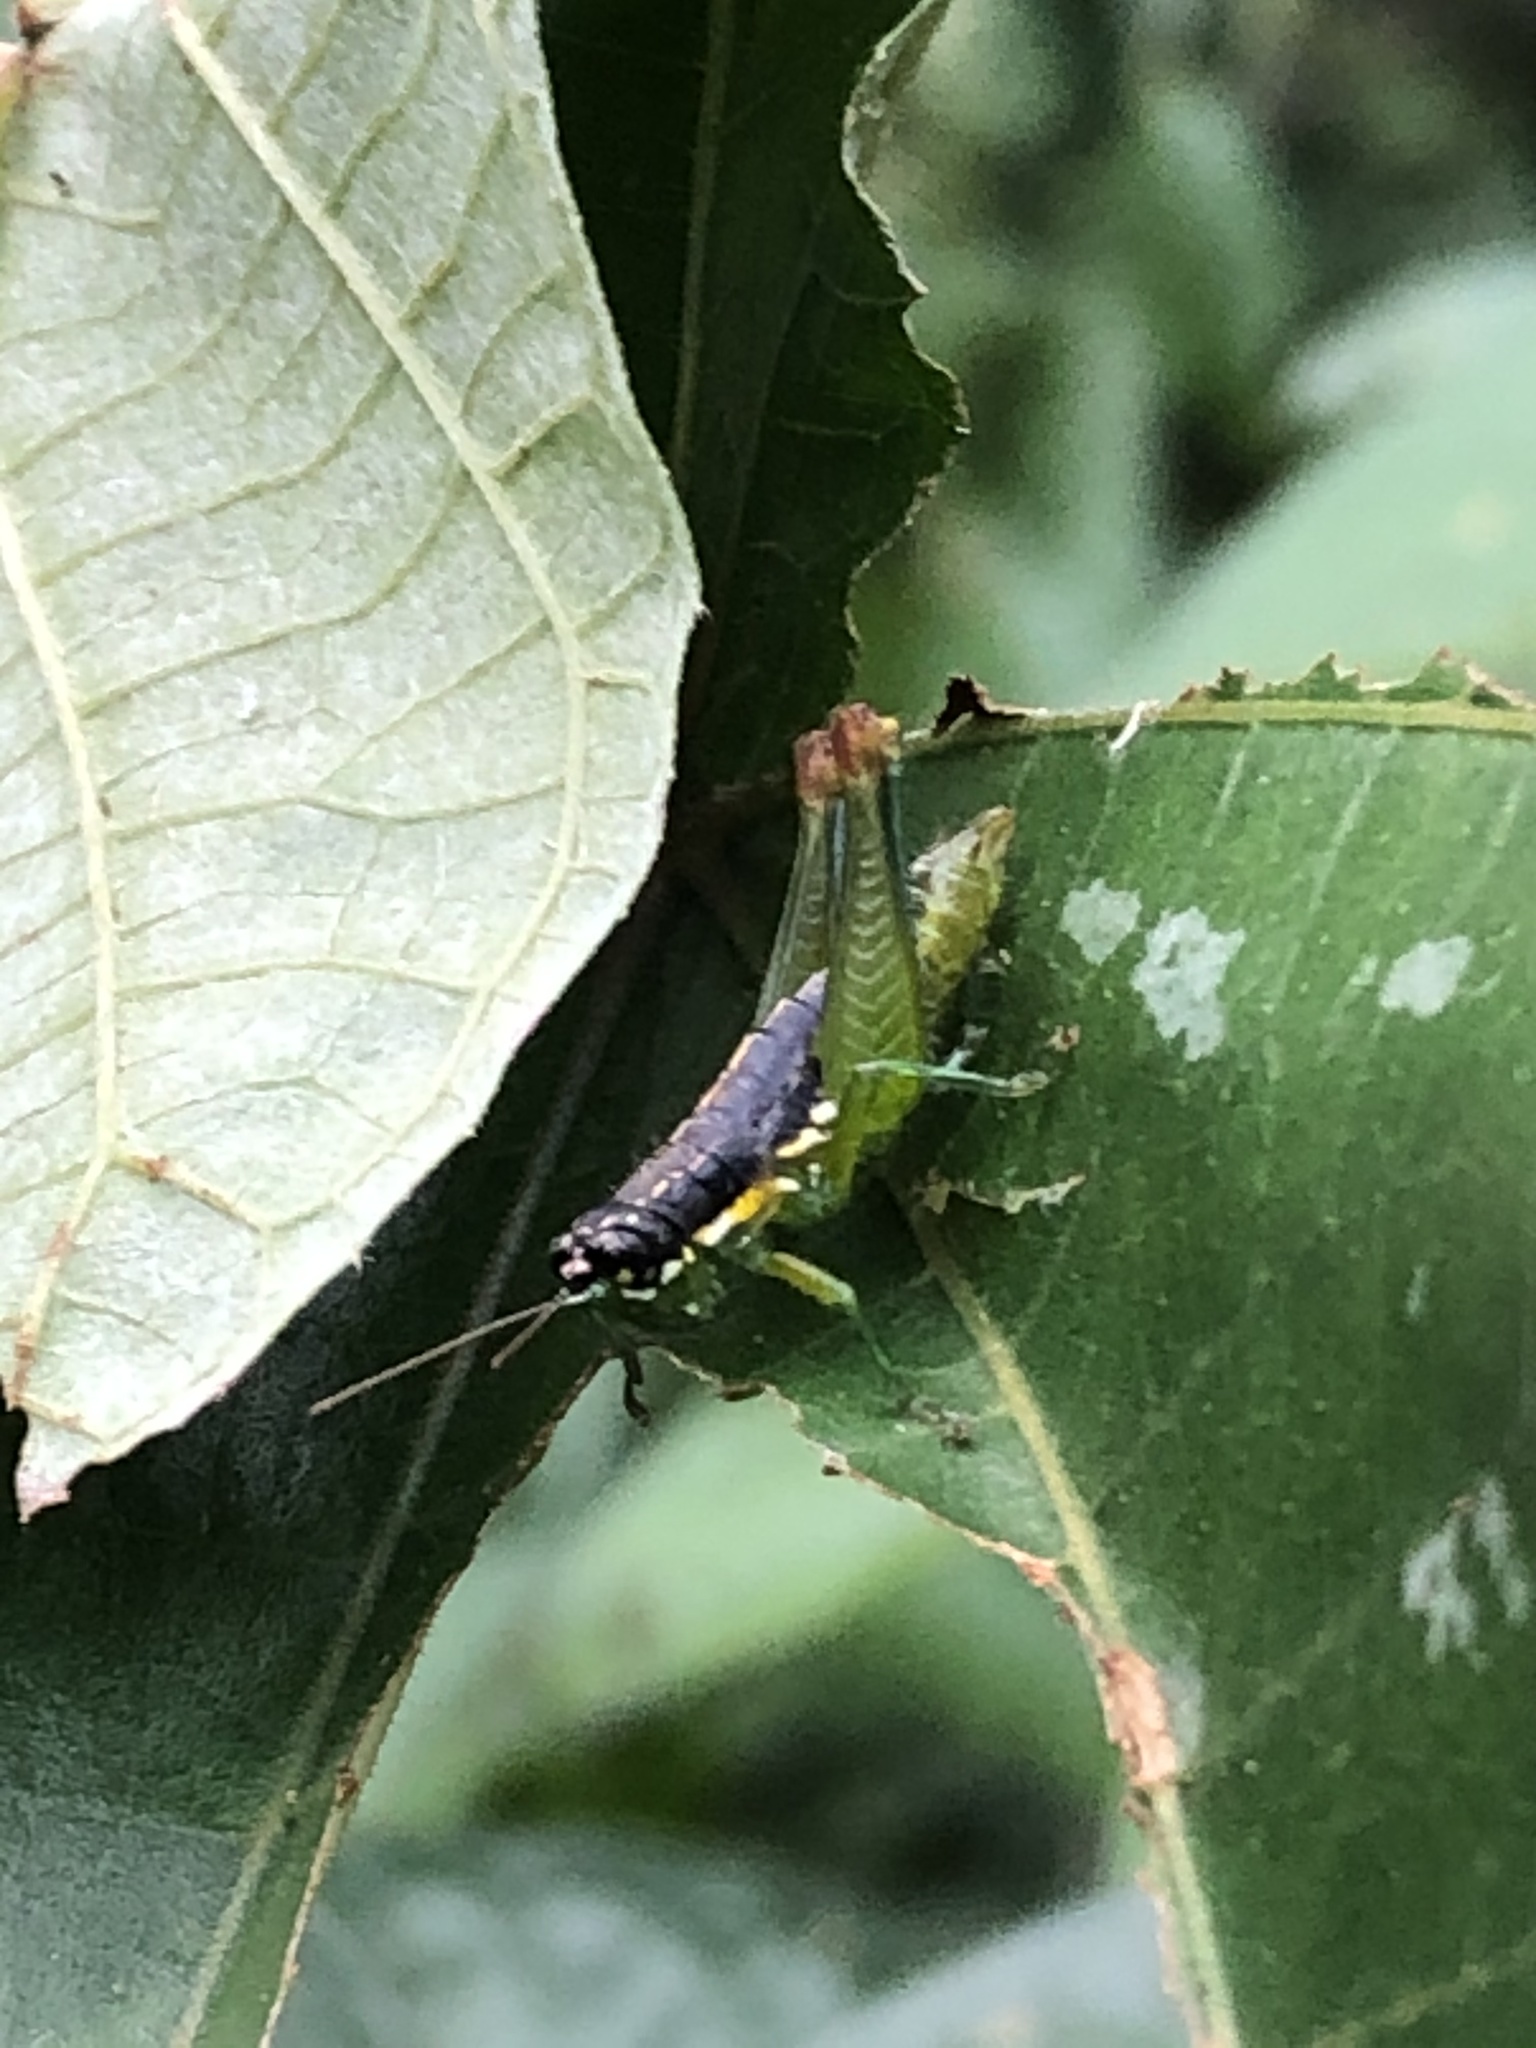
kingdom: Animalia
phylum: Arthropoda
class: Insecta
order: Orthoptera
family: Acrididae
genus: Liebermannacris
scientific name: Liebermannacris dorsualis
